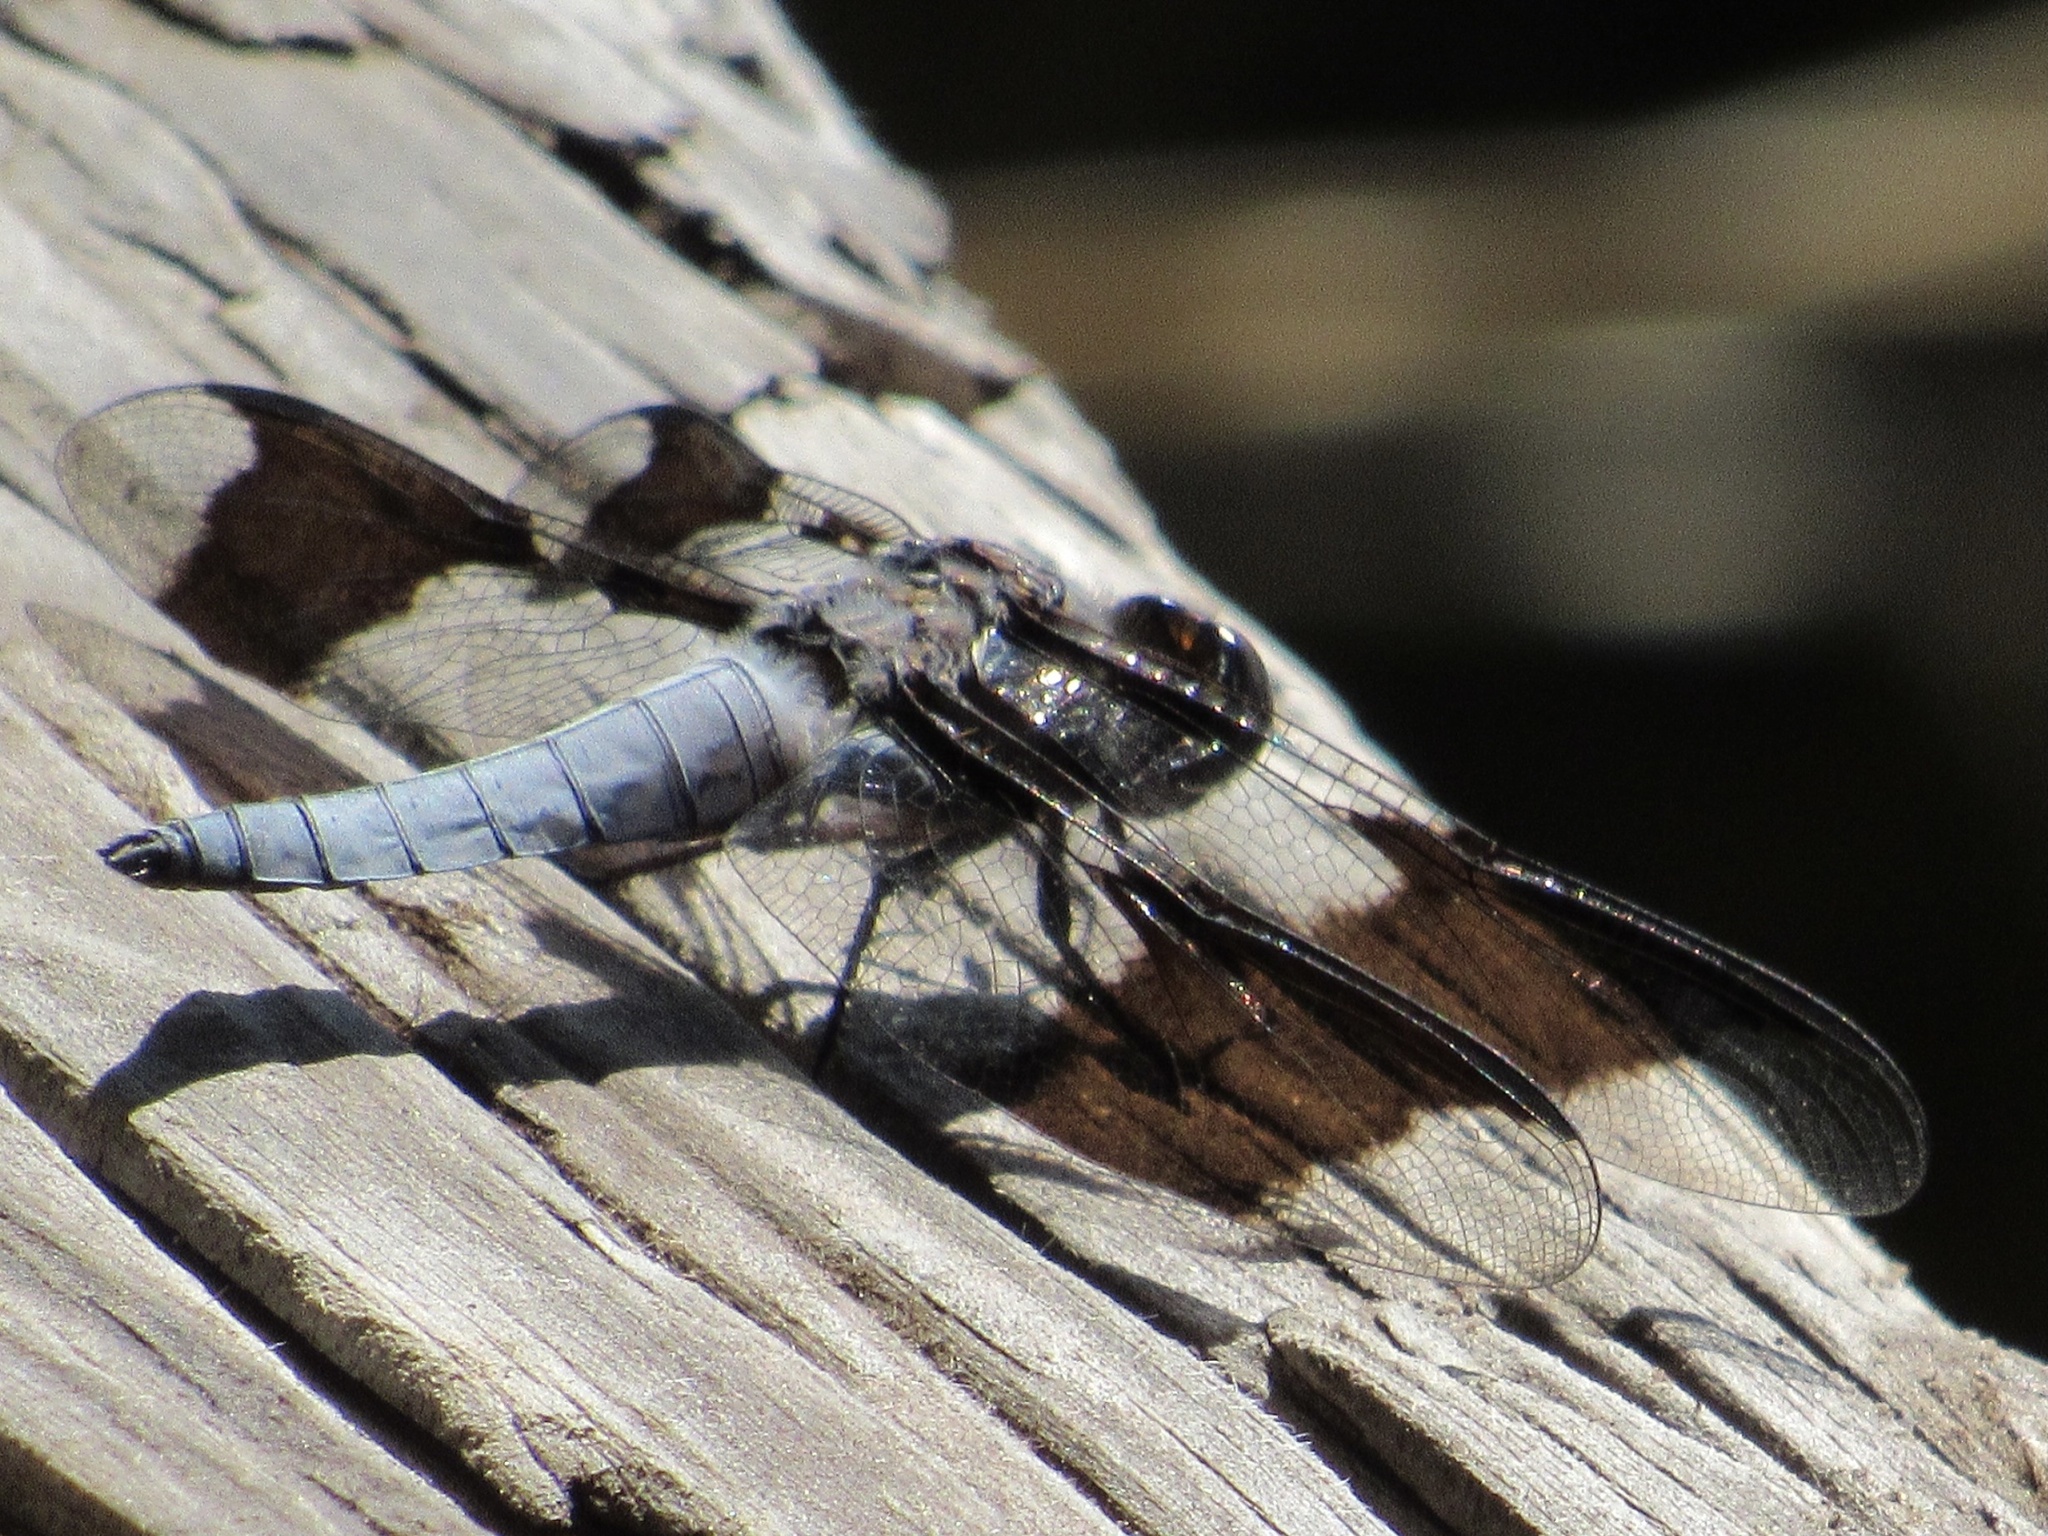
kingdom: Animalia
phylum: Arthropoda
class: Insecta
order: Odonata
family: Libellulidae
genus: Plathemis
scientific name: Plathemis lydia
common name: Common whitetail
